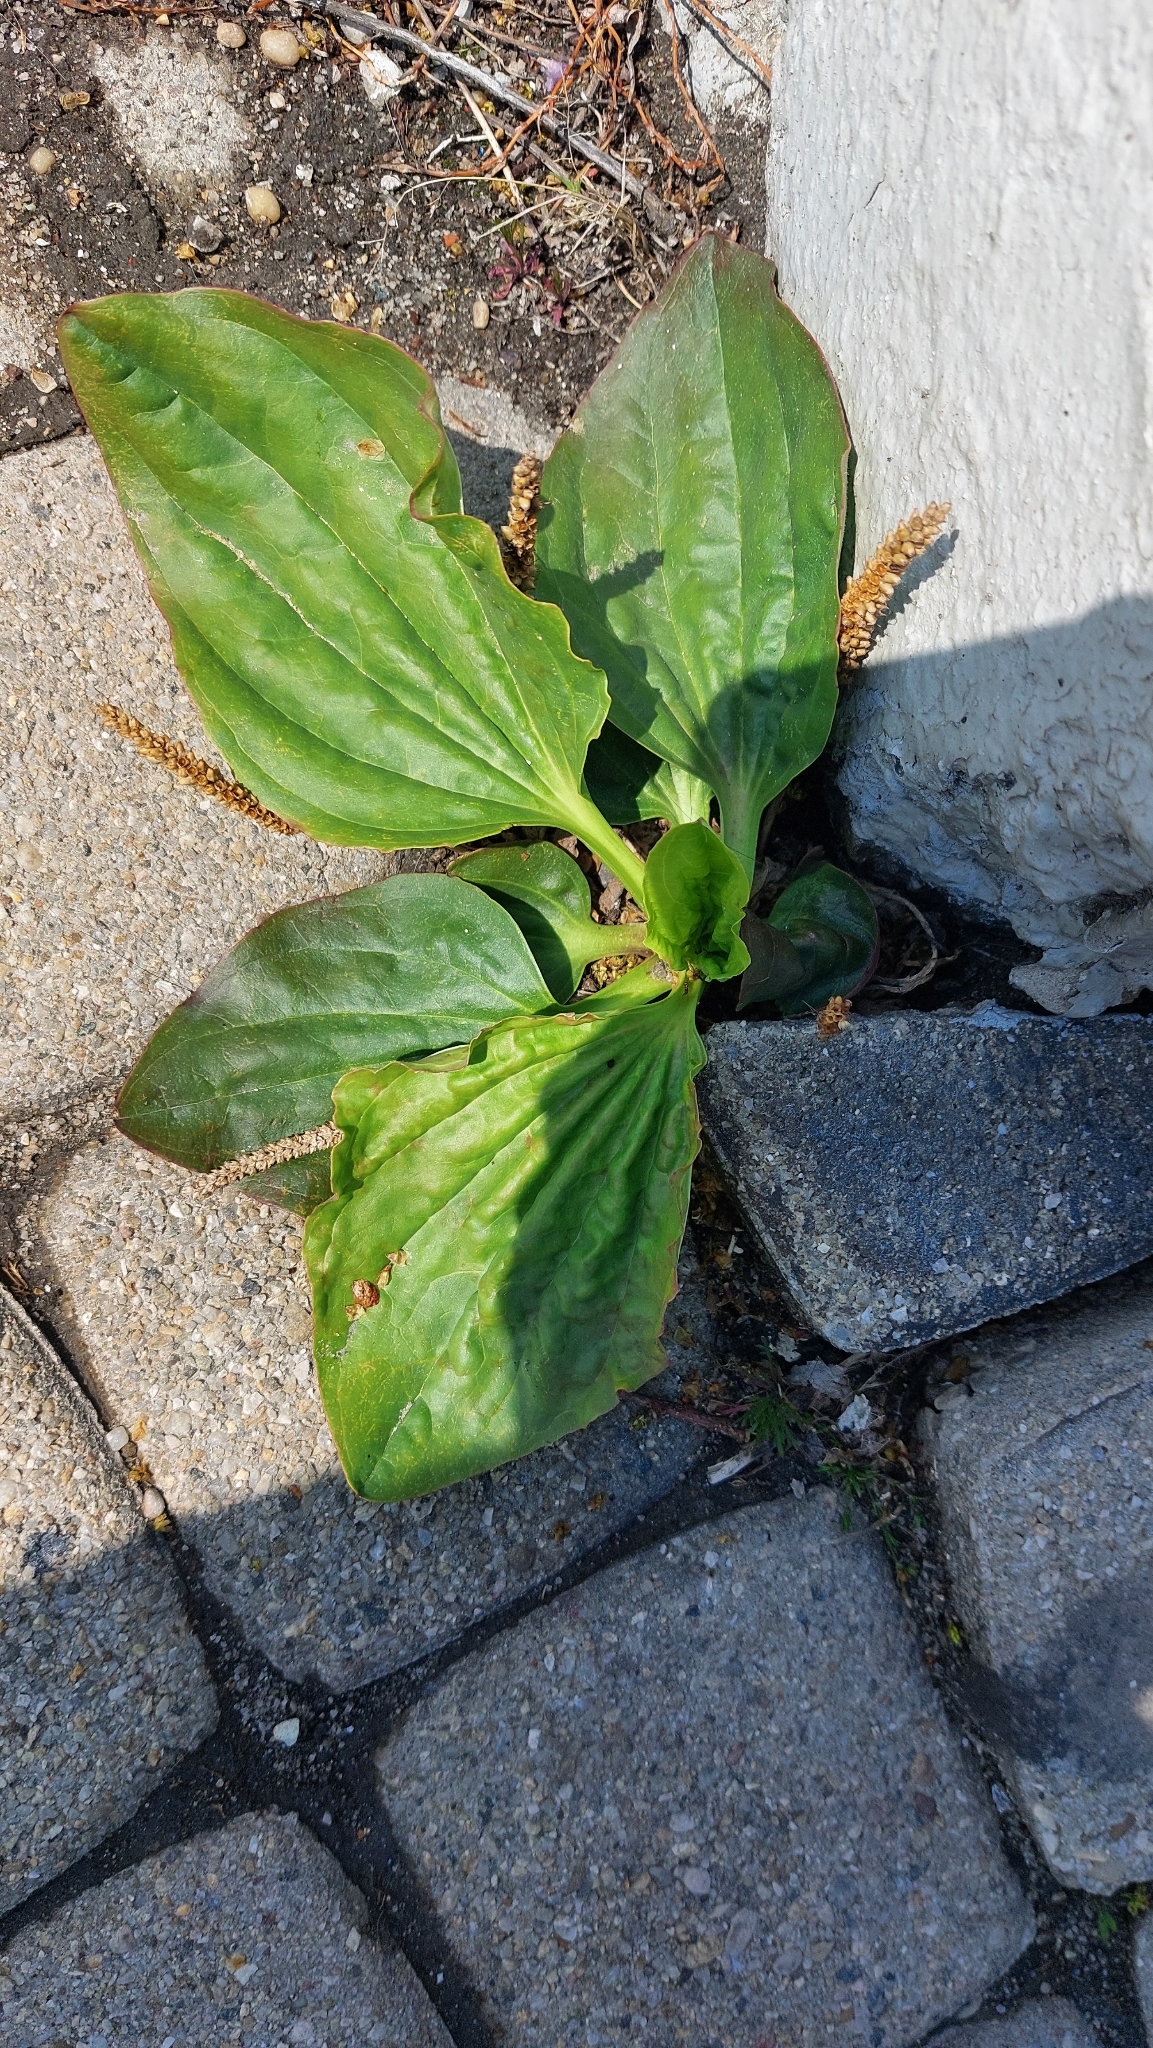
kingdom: Plantae
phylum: Tracheophyta
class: Magnoliopsida
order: Lamiales
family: Plantaginaceae
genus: Plantago
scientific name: Plantago major
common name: Common plantain
